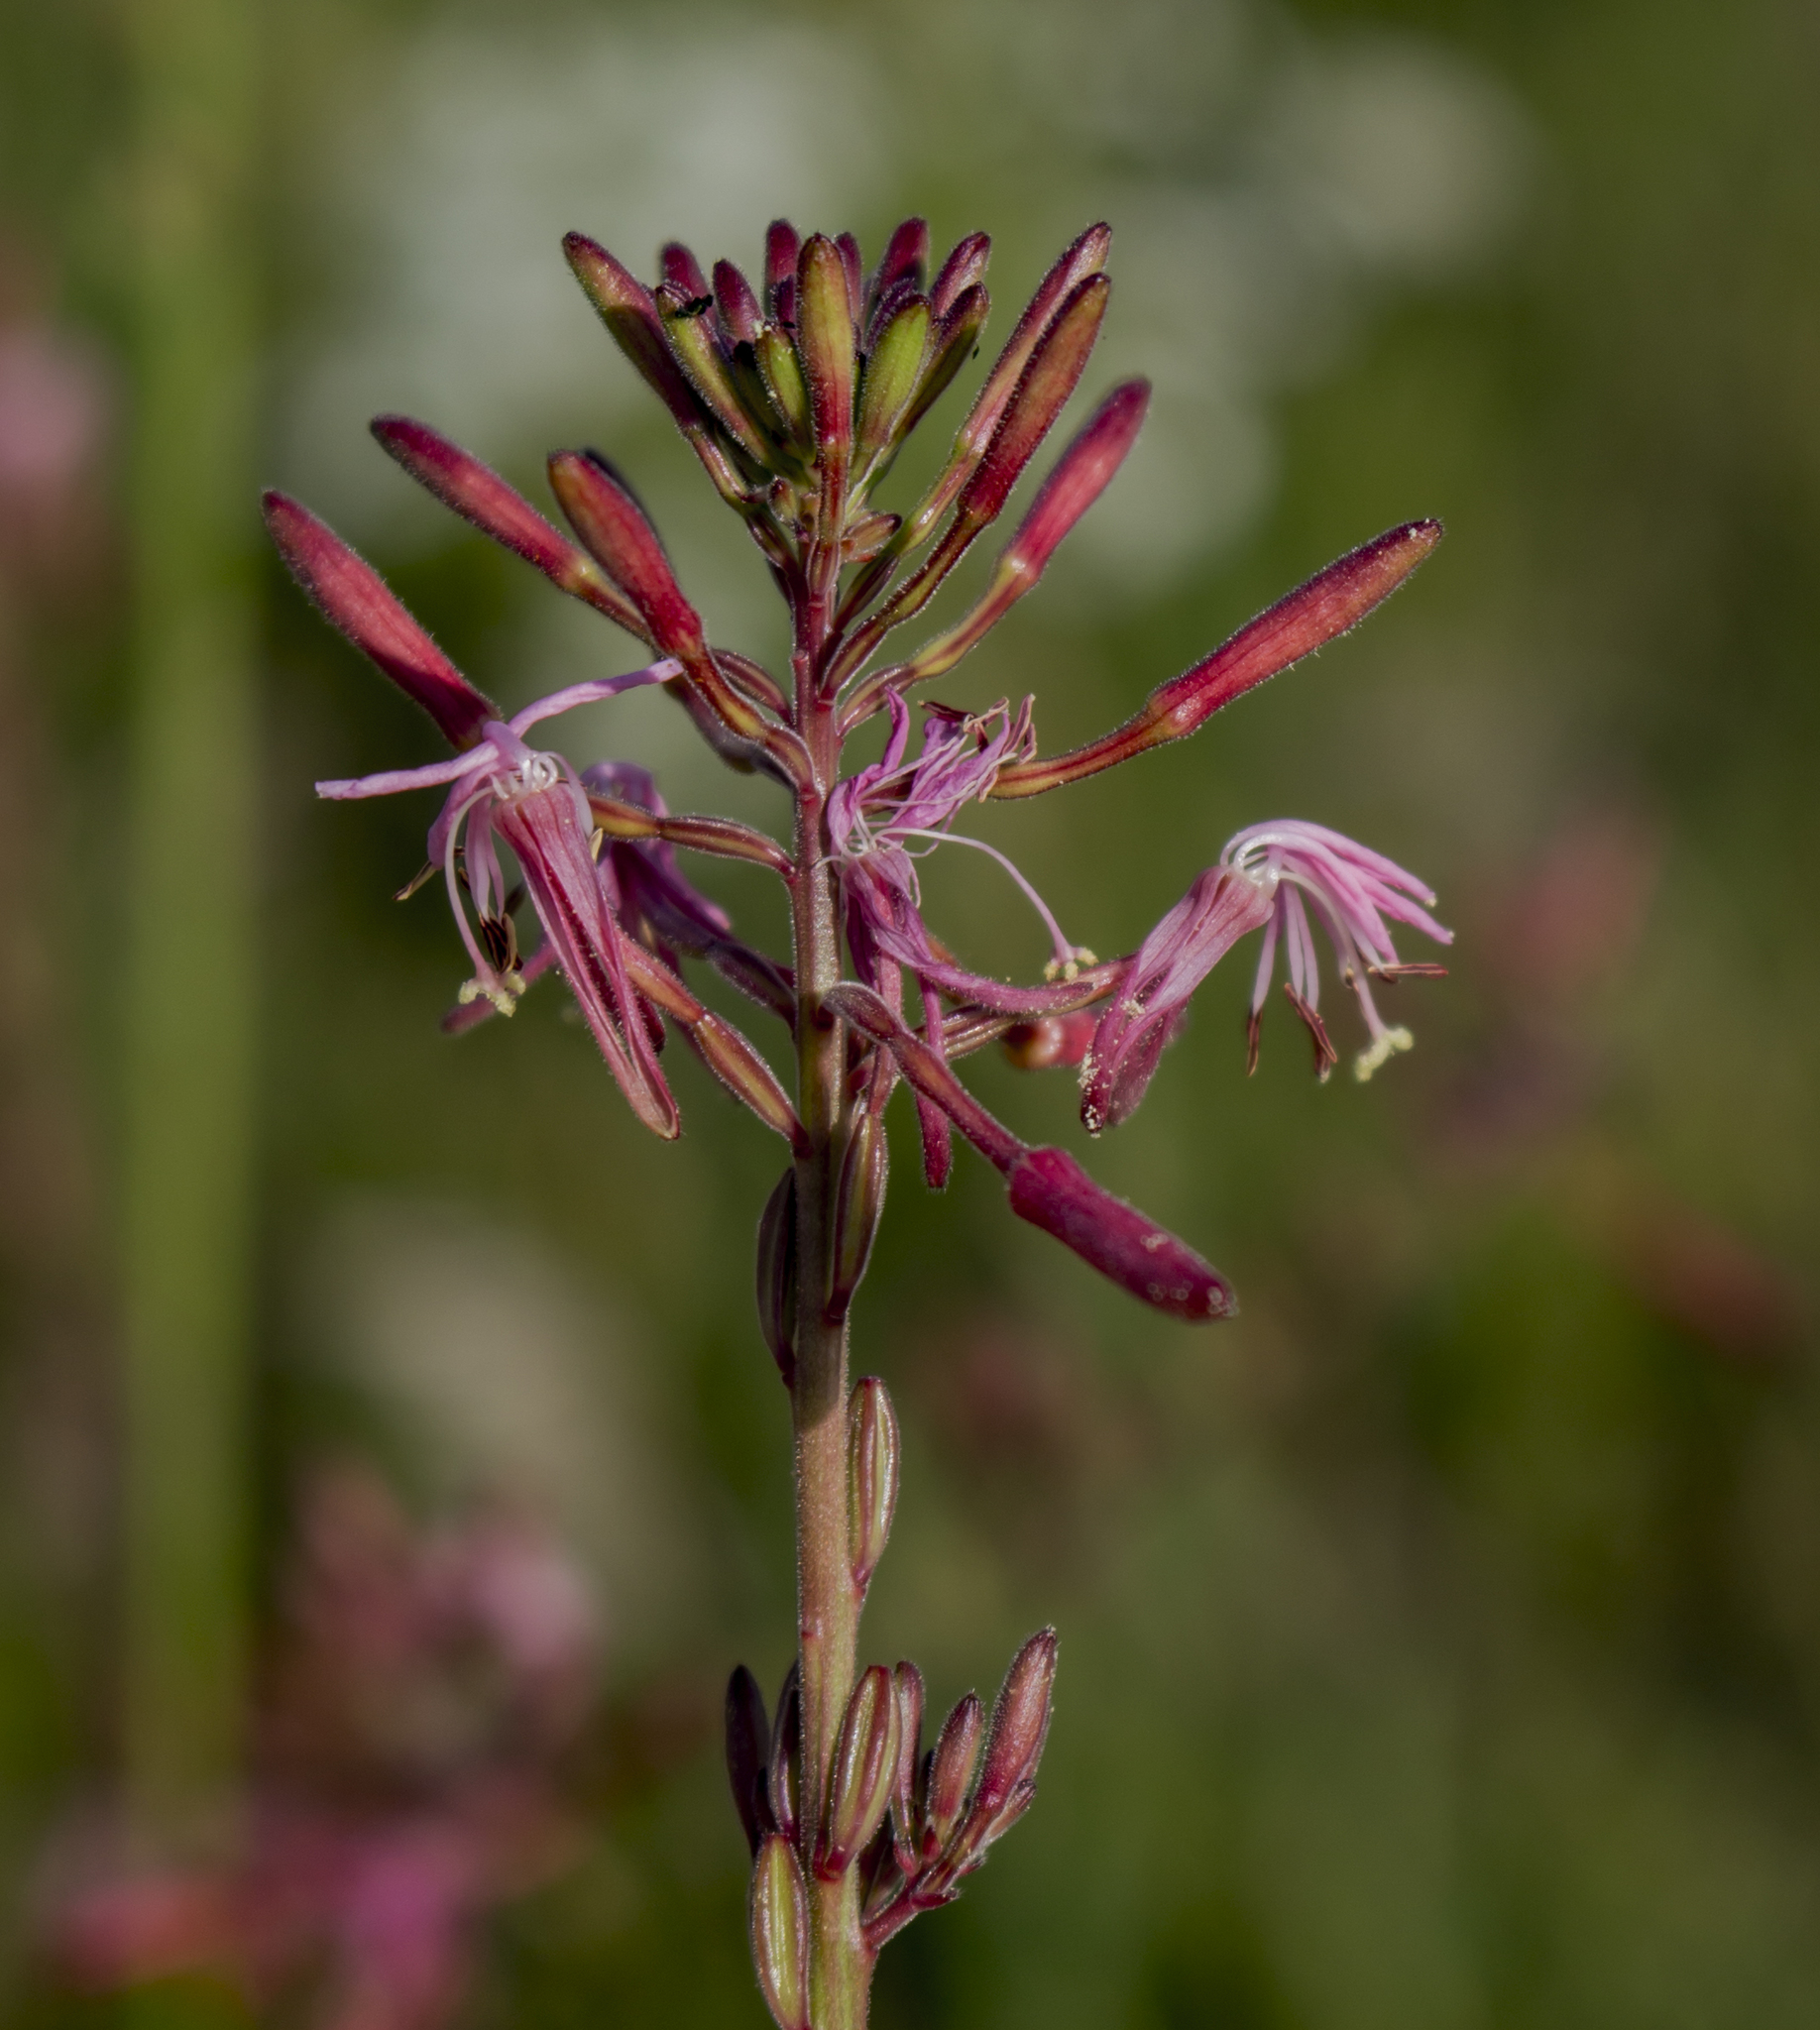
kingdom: Plantae
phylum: Tracheophyta
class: Magnoliopsida
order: Myrtales
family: Onagraceae
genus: Oenothera
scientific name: Oenothera gaura
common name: Biennial beeblossom
